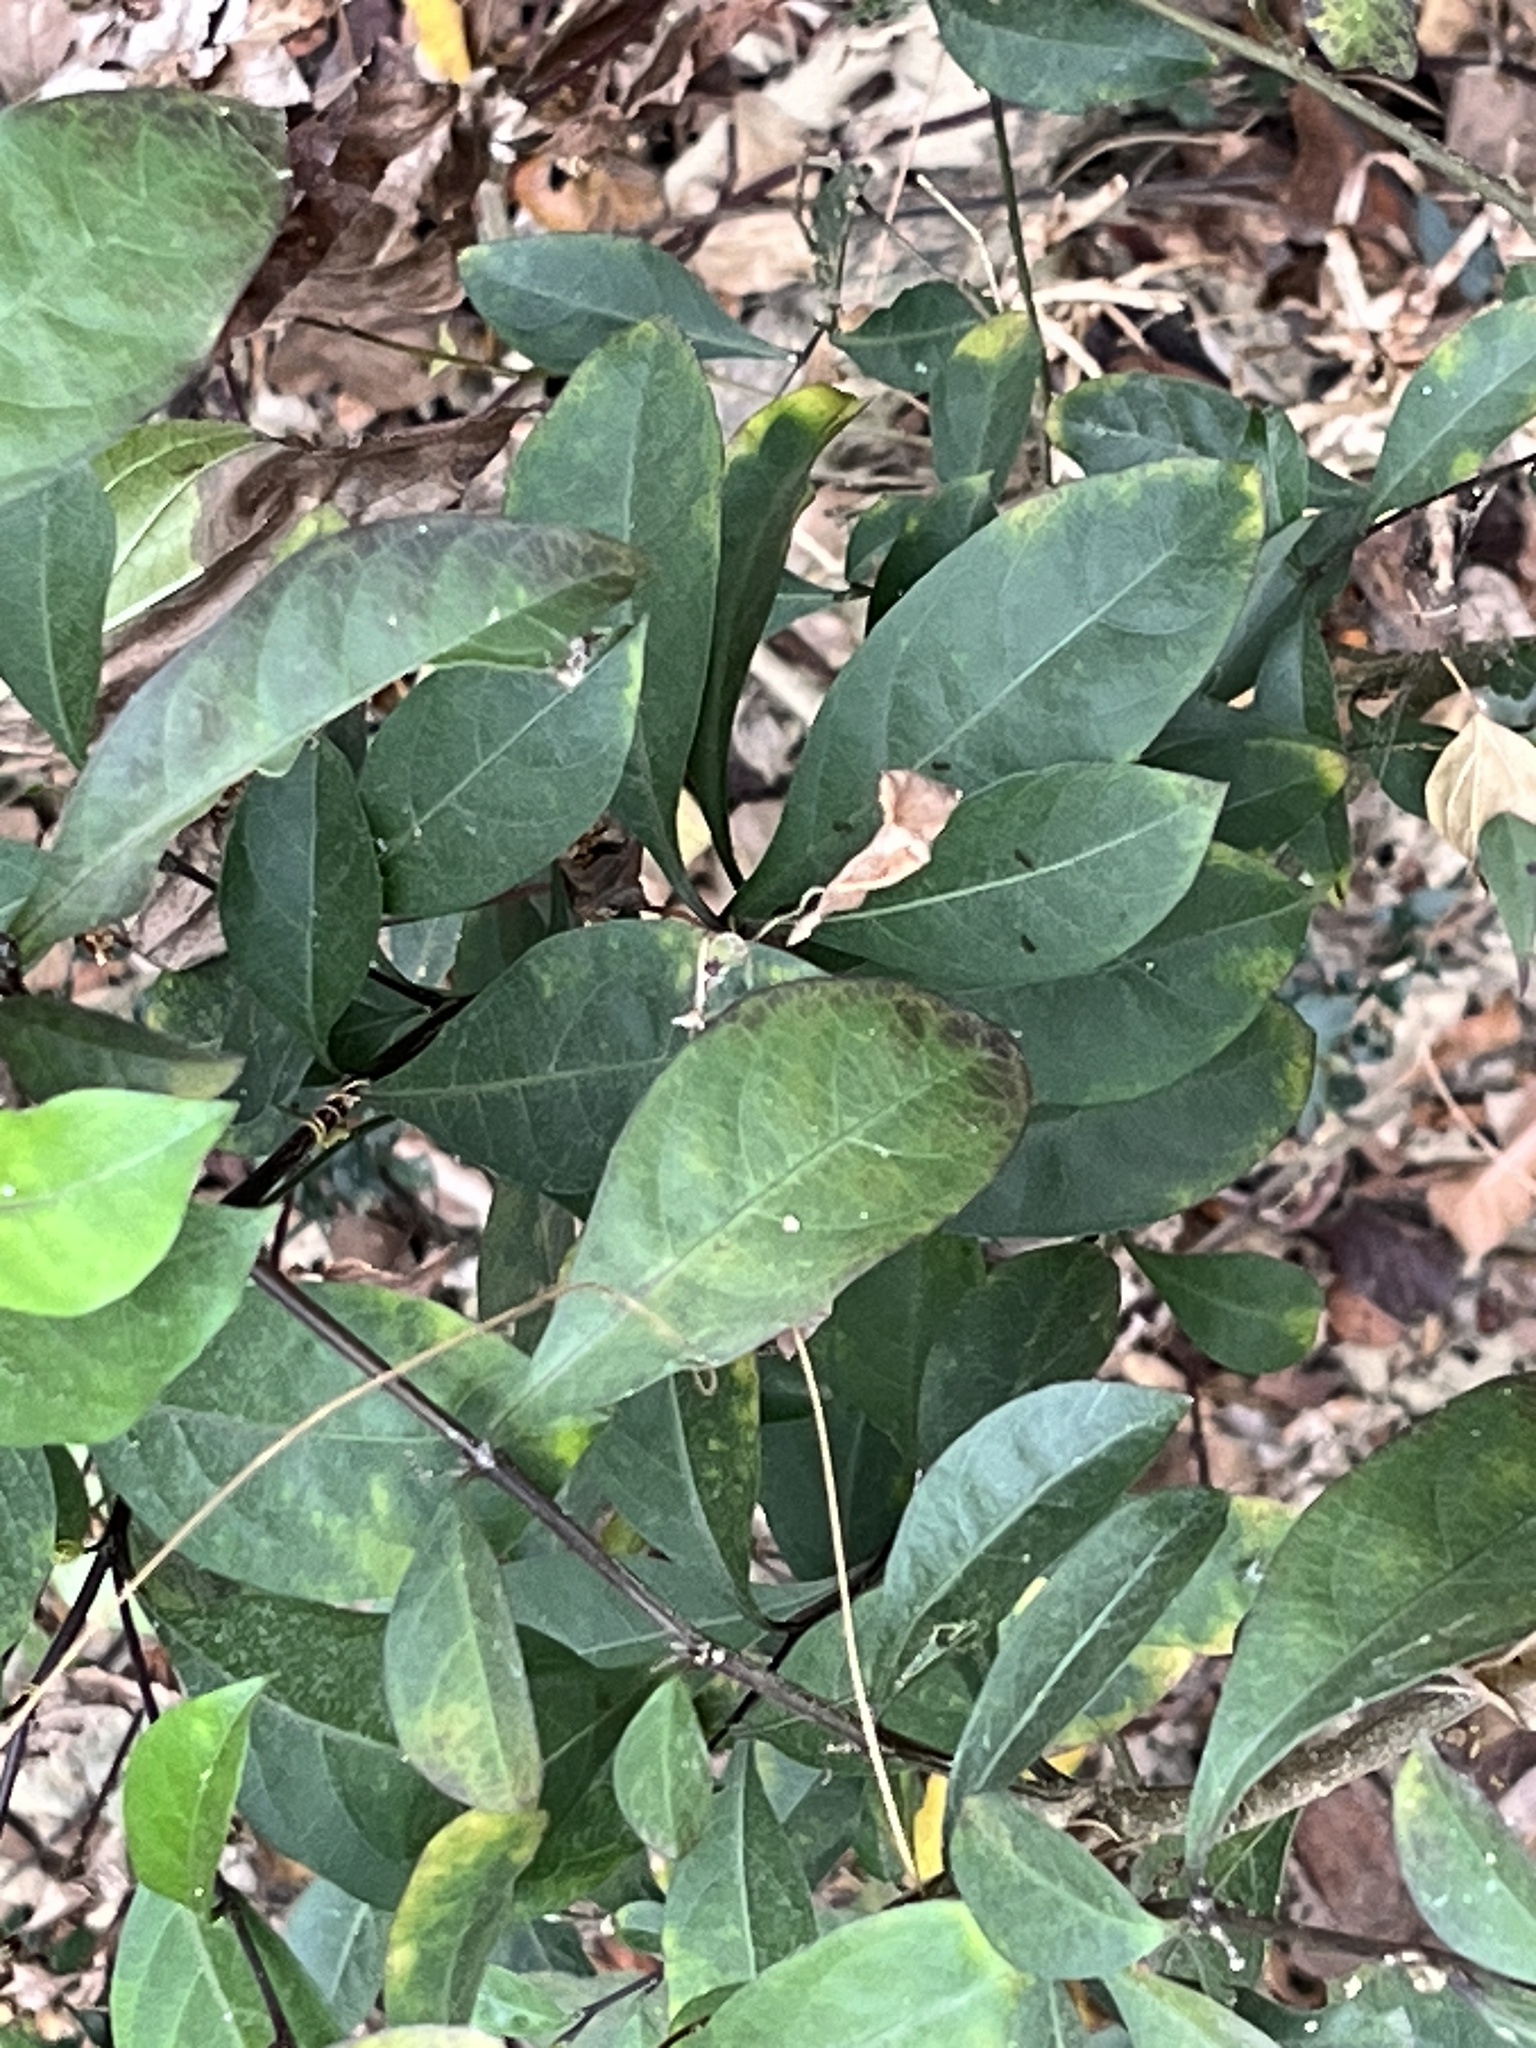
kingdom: Plantae
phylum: Tracheophyta
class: Magnoliopsida
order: Solanales
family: Solanaceae
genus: Solanum
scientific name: Solanum diphyllum
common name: Twoleaf nightshade
